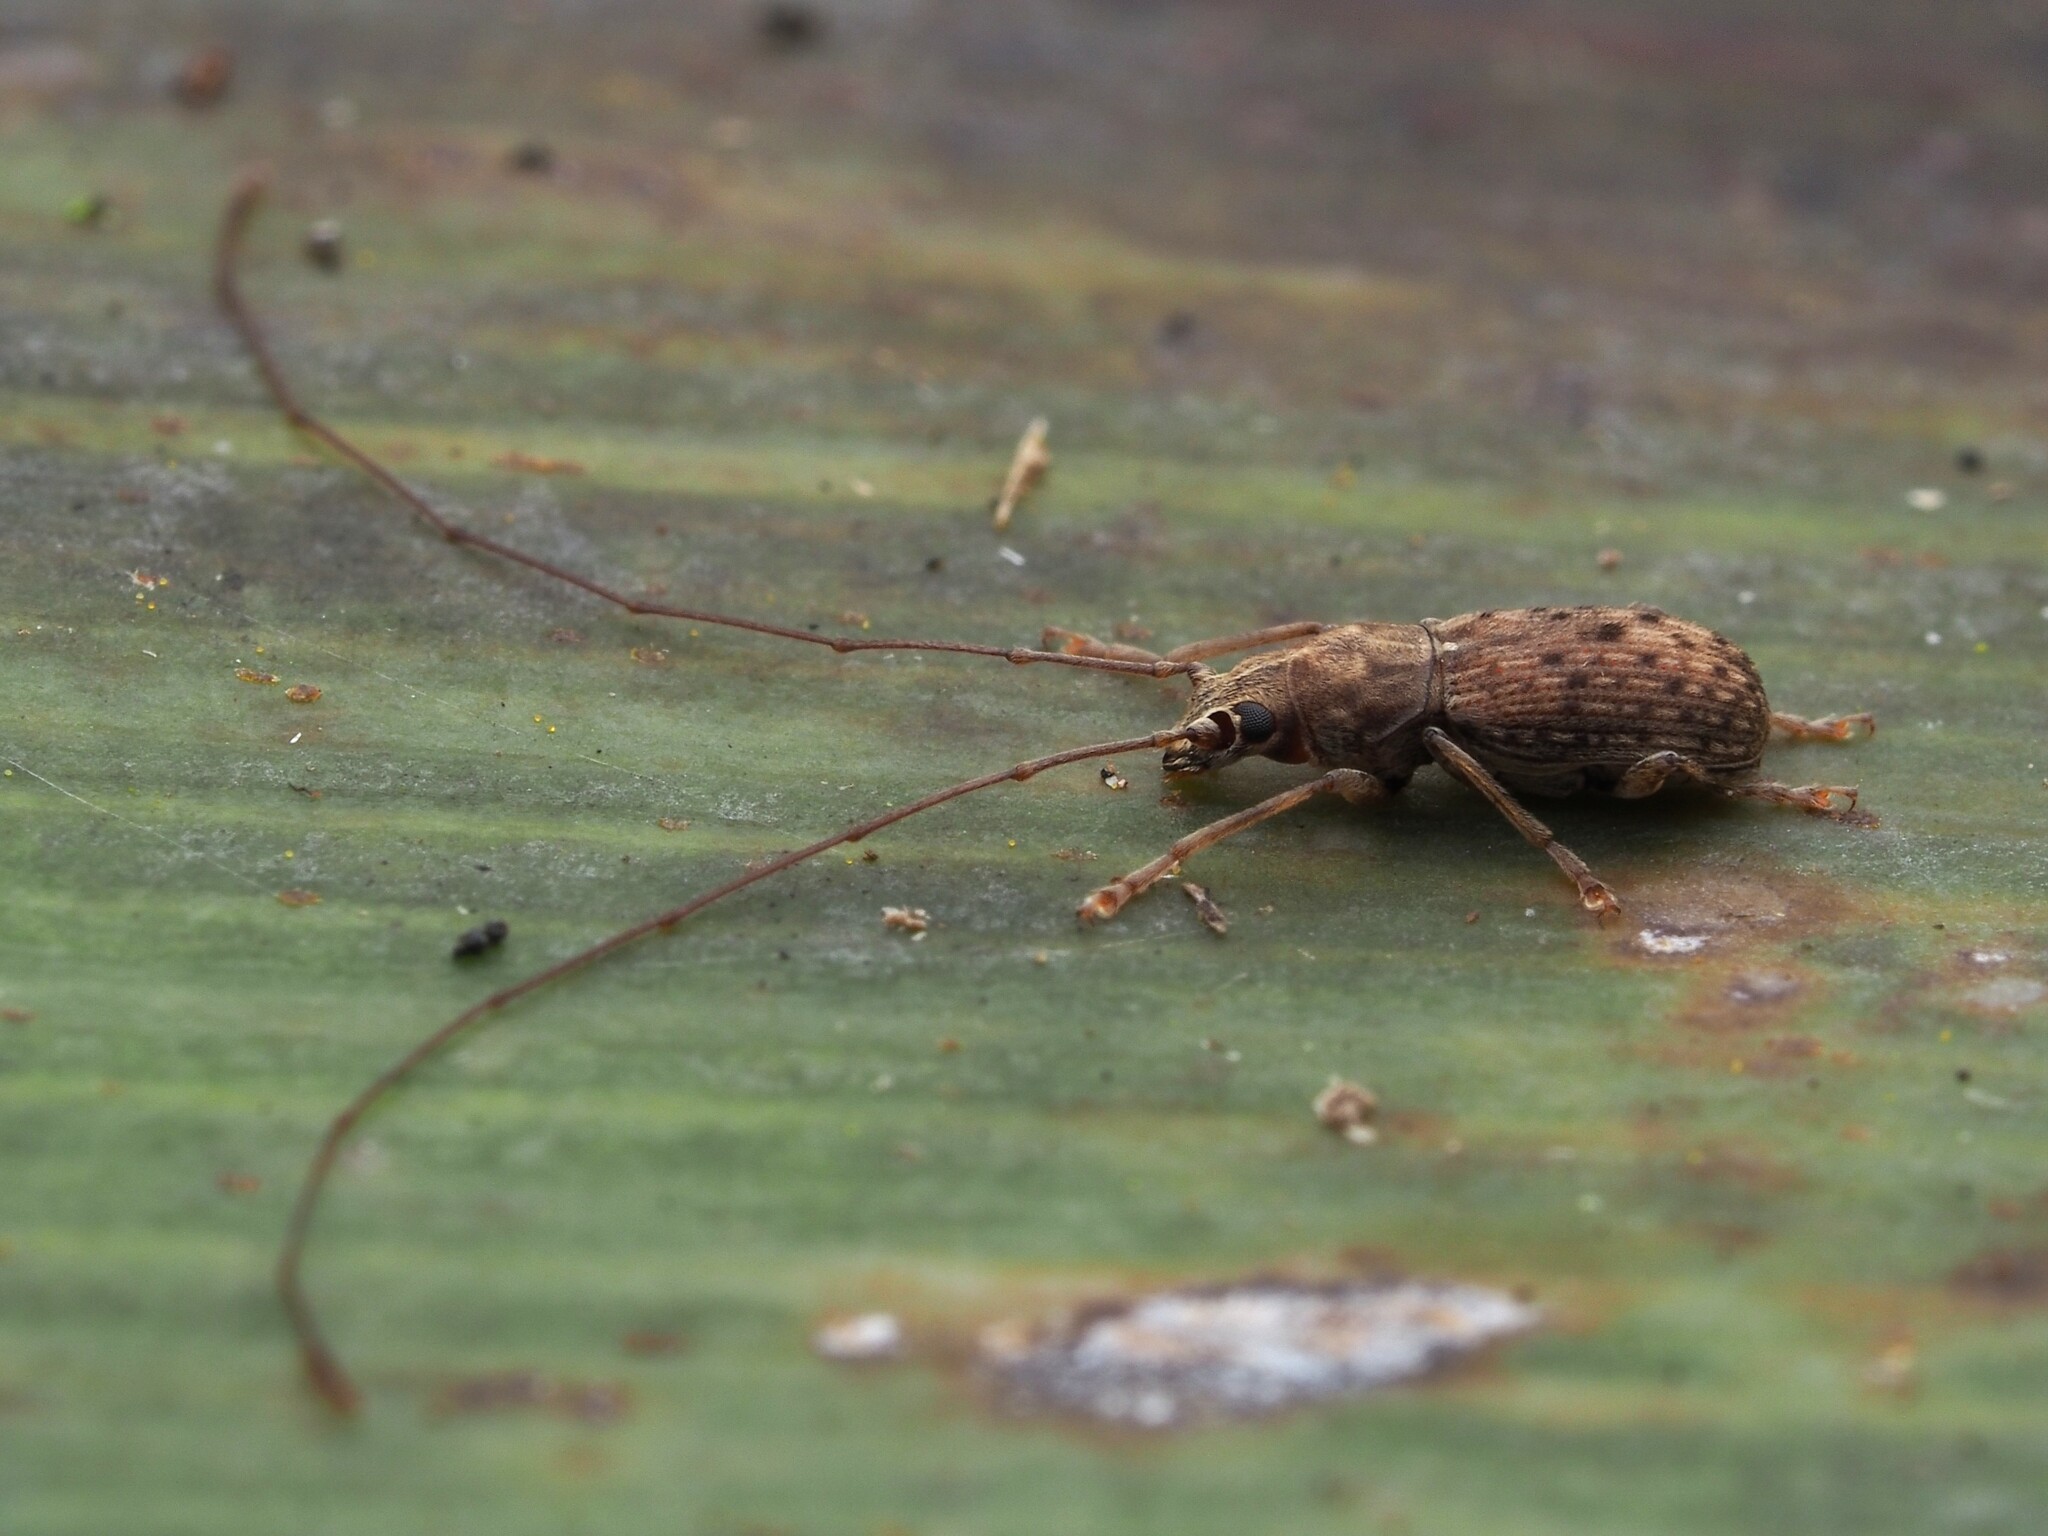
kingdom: Animalia
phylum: Arthropoda
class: Insecta
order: Coleoptera
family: Anthribidae
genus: Arecopais
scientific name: Arecopais spectabilis
